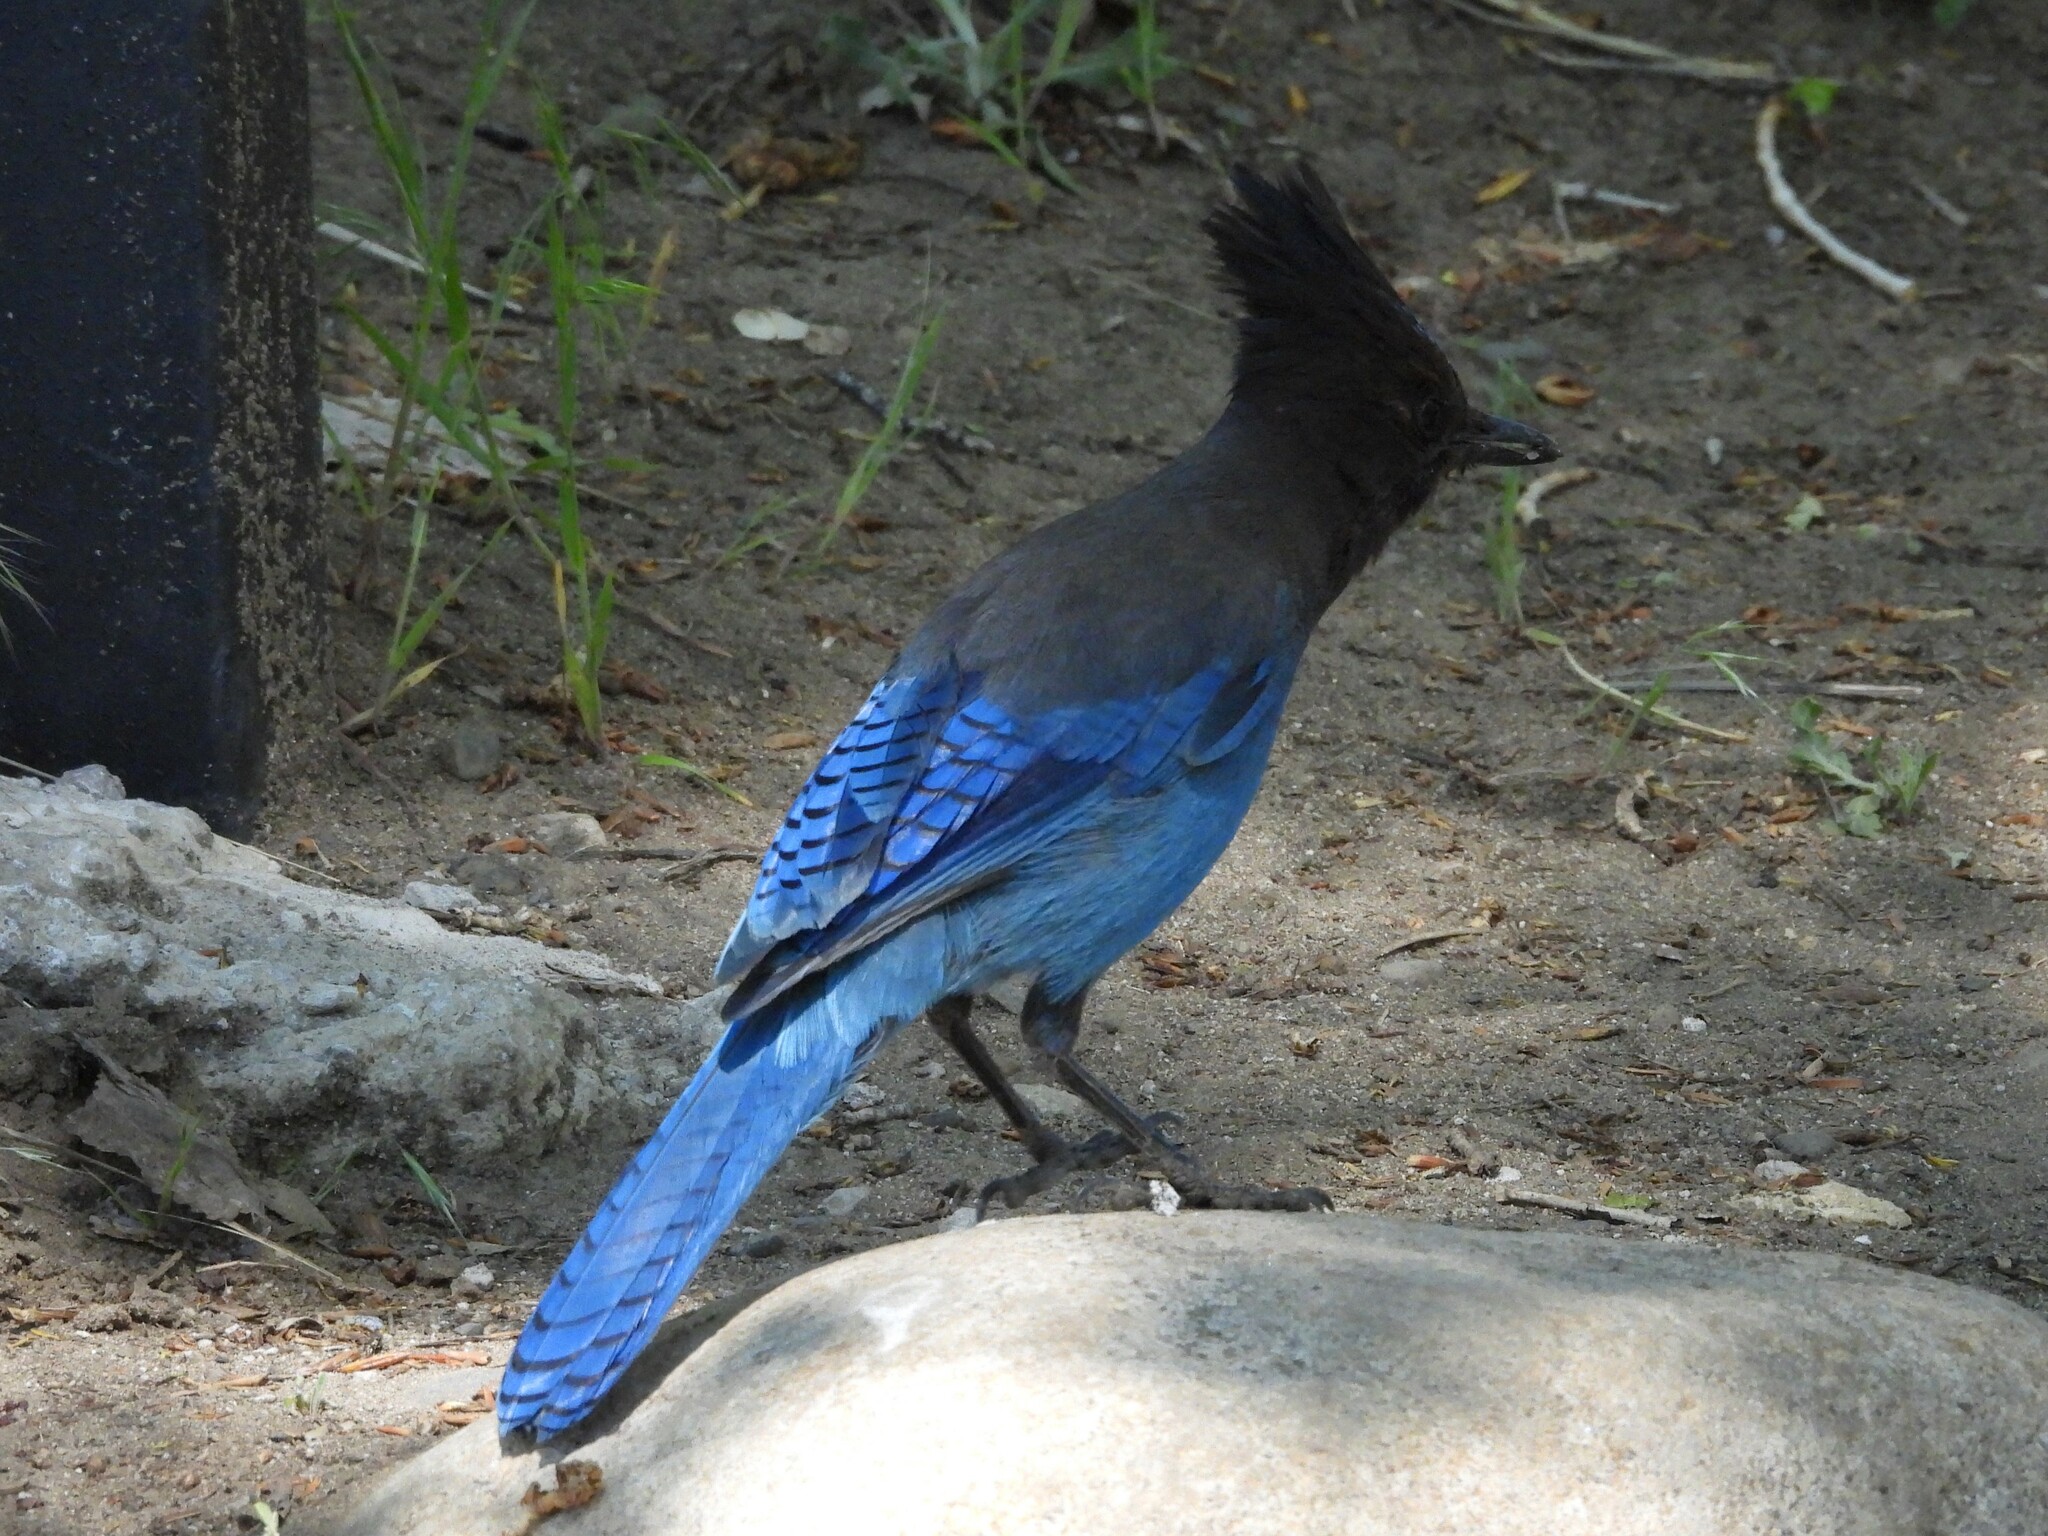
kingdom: Animalia
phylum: Chordata
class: Aves
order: Passeriformes
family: Corvidae
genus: Cyanocitta
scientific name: Cyanocitta stelleri
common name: Steller's jay
